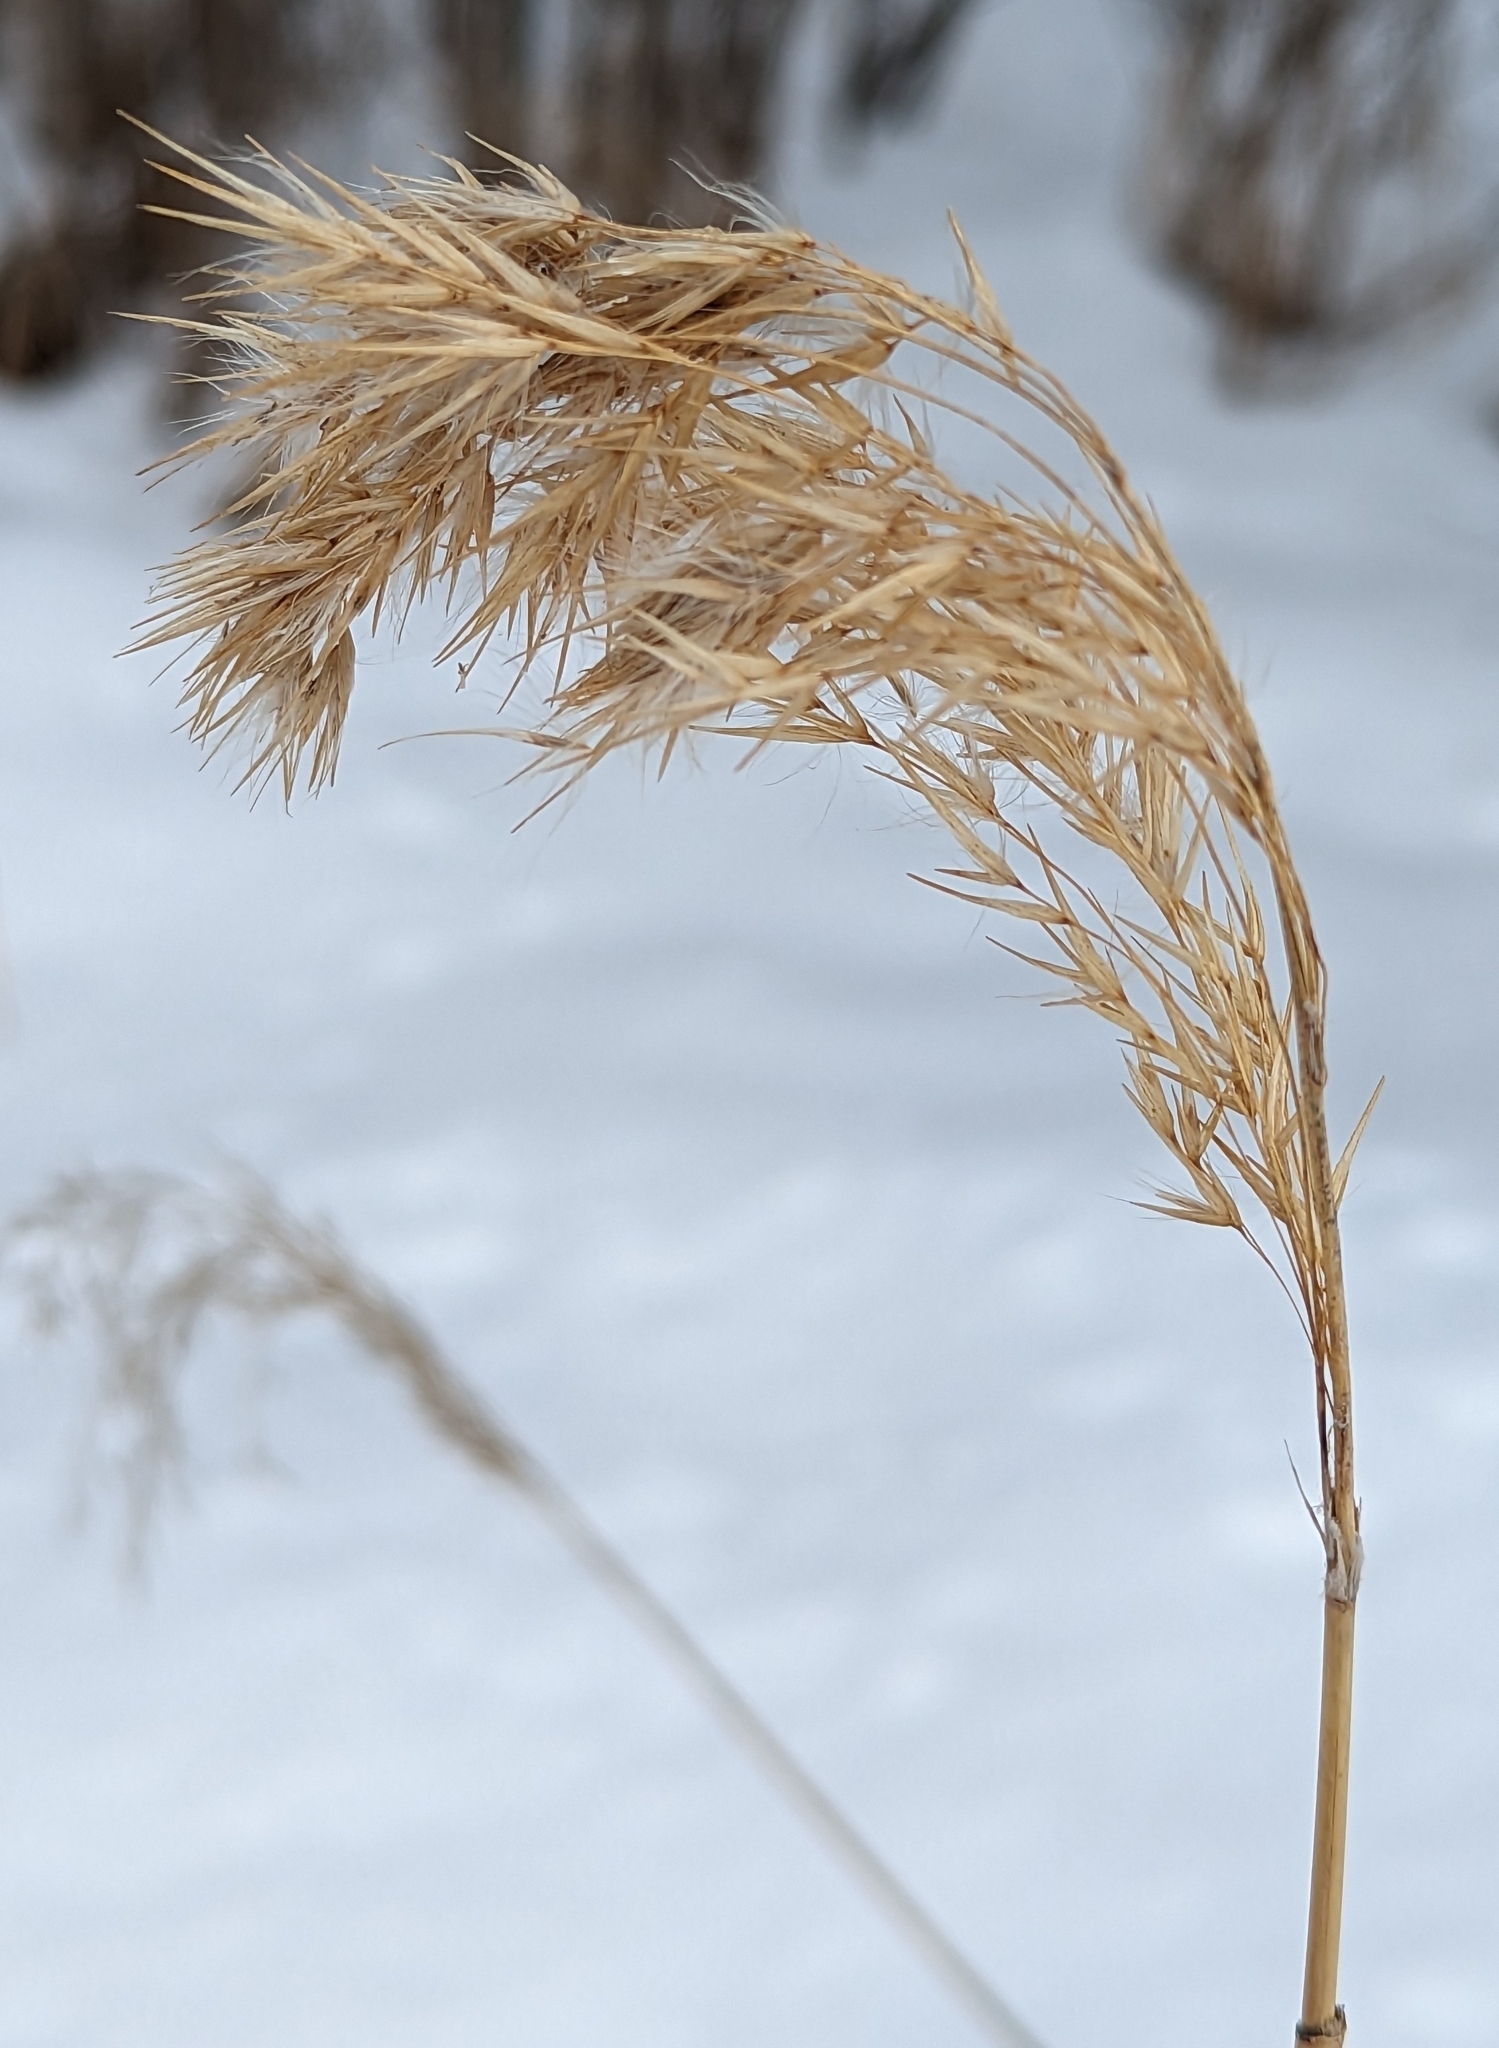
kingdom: Plantae
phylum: Tracheophyta
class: Liliopsida
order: Poales
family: Poaceae
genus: Phragmites
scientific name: Phragmites australis
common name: Common reed
